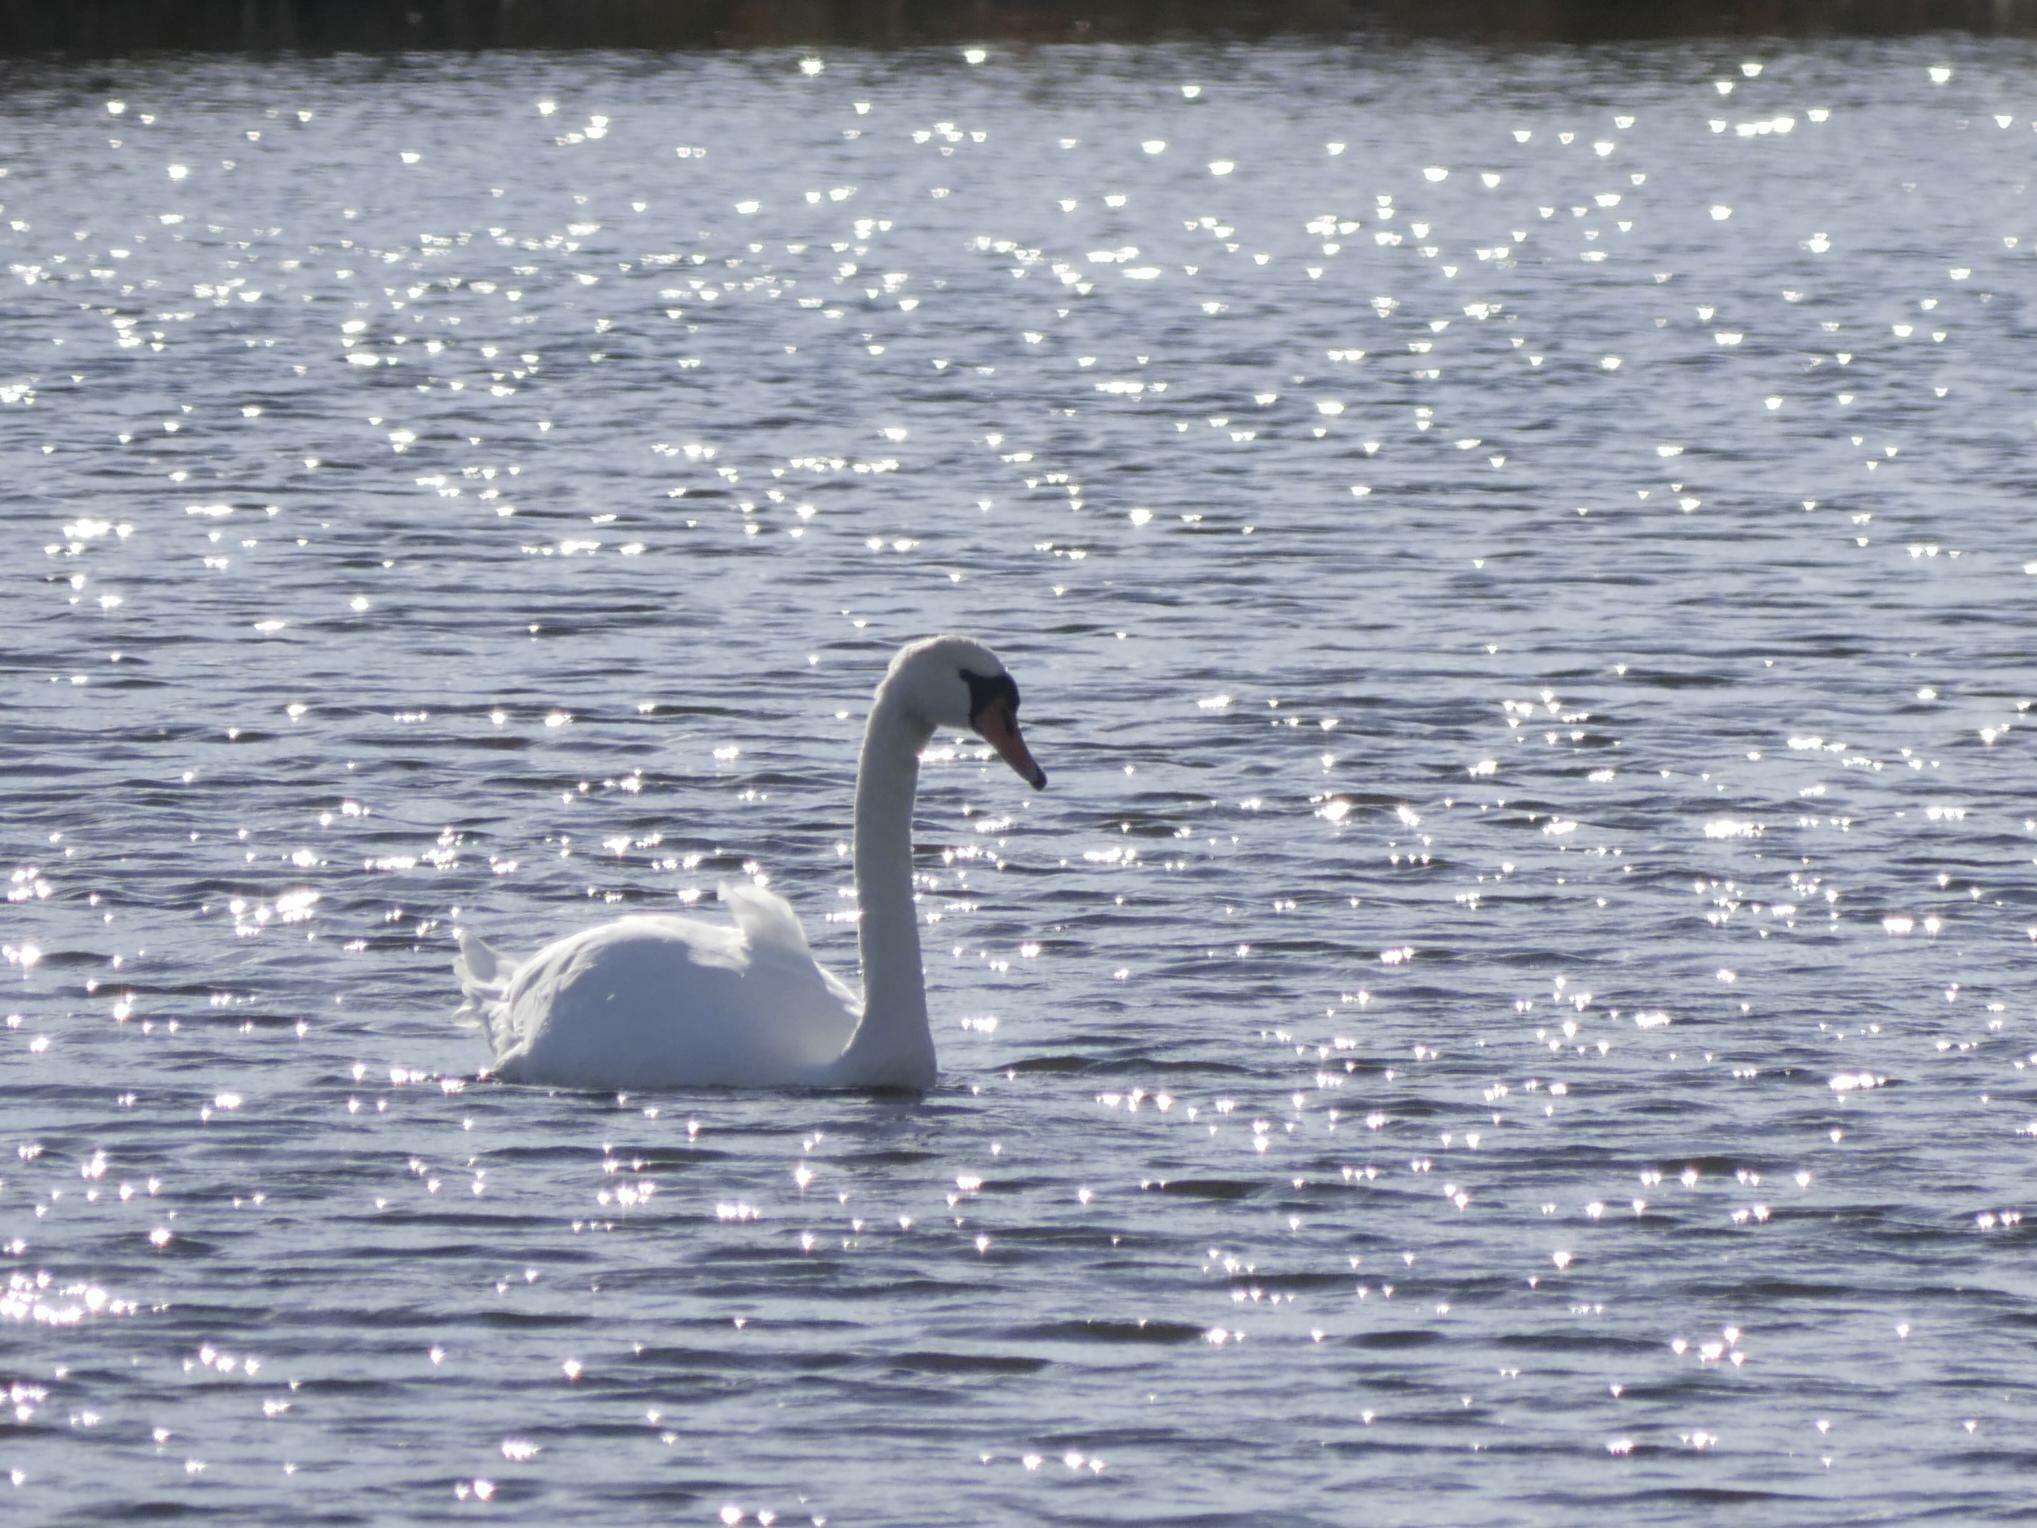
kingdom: Animalia
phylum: Chordata
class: Aves
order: Anseriformes
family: Anatidae
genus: Cygnus
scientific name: Cygnus olor
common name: Mute swan
